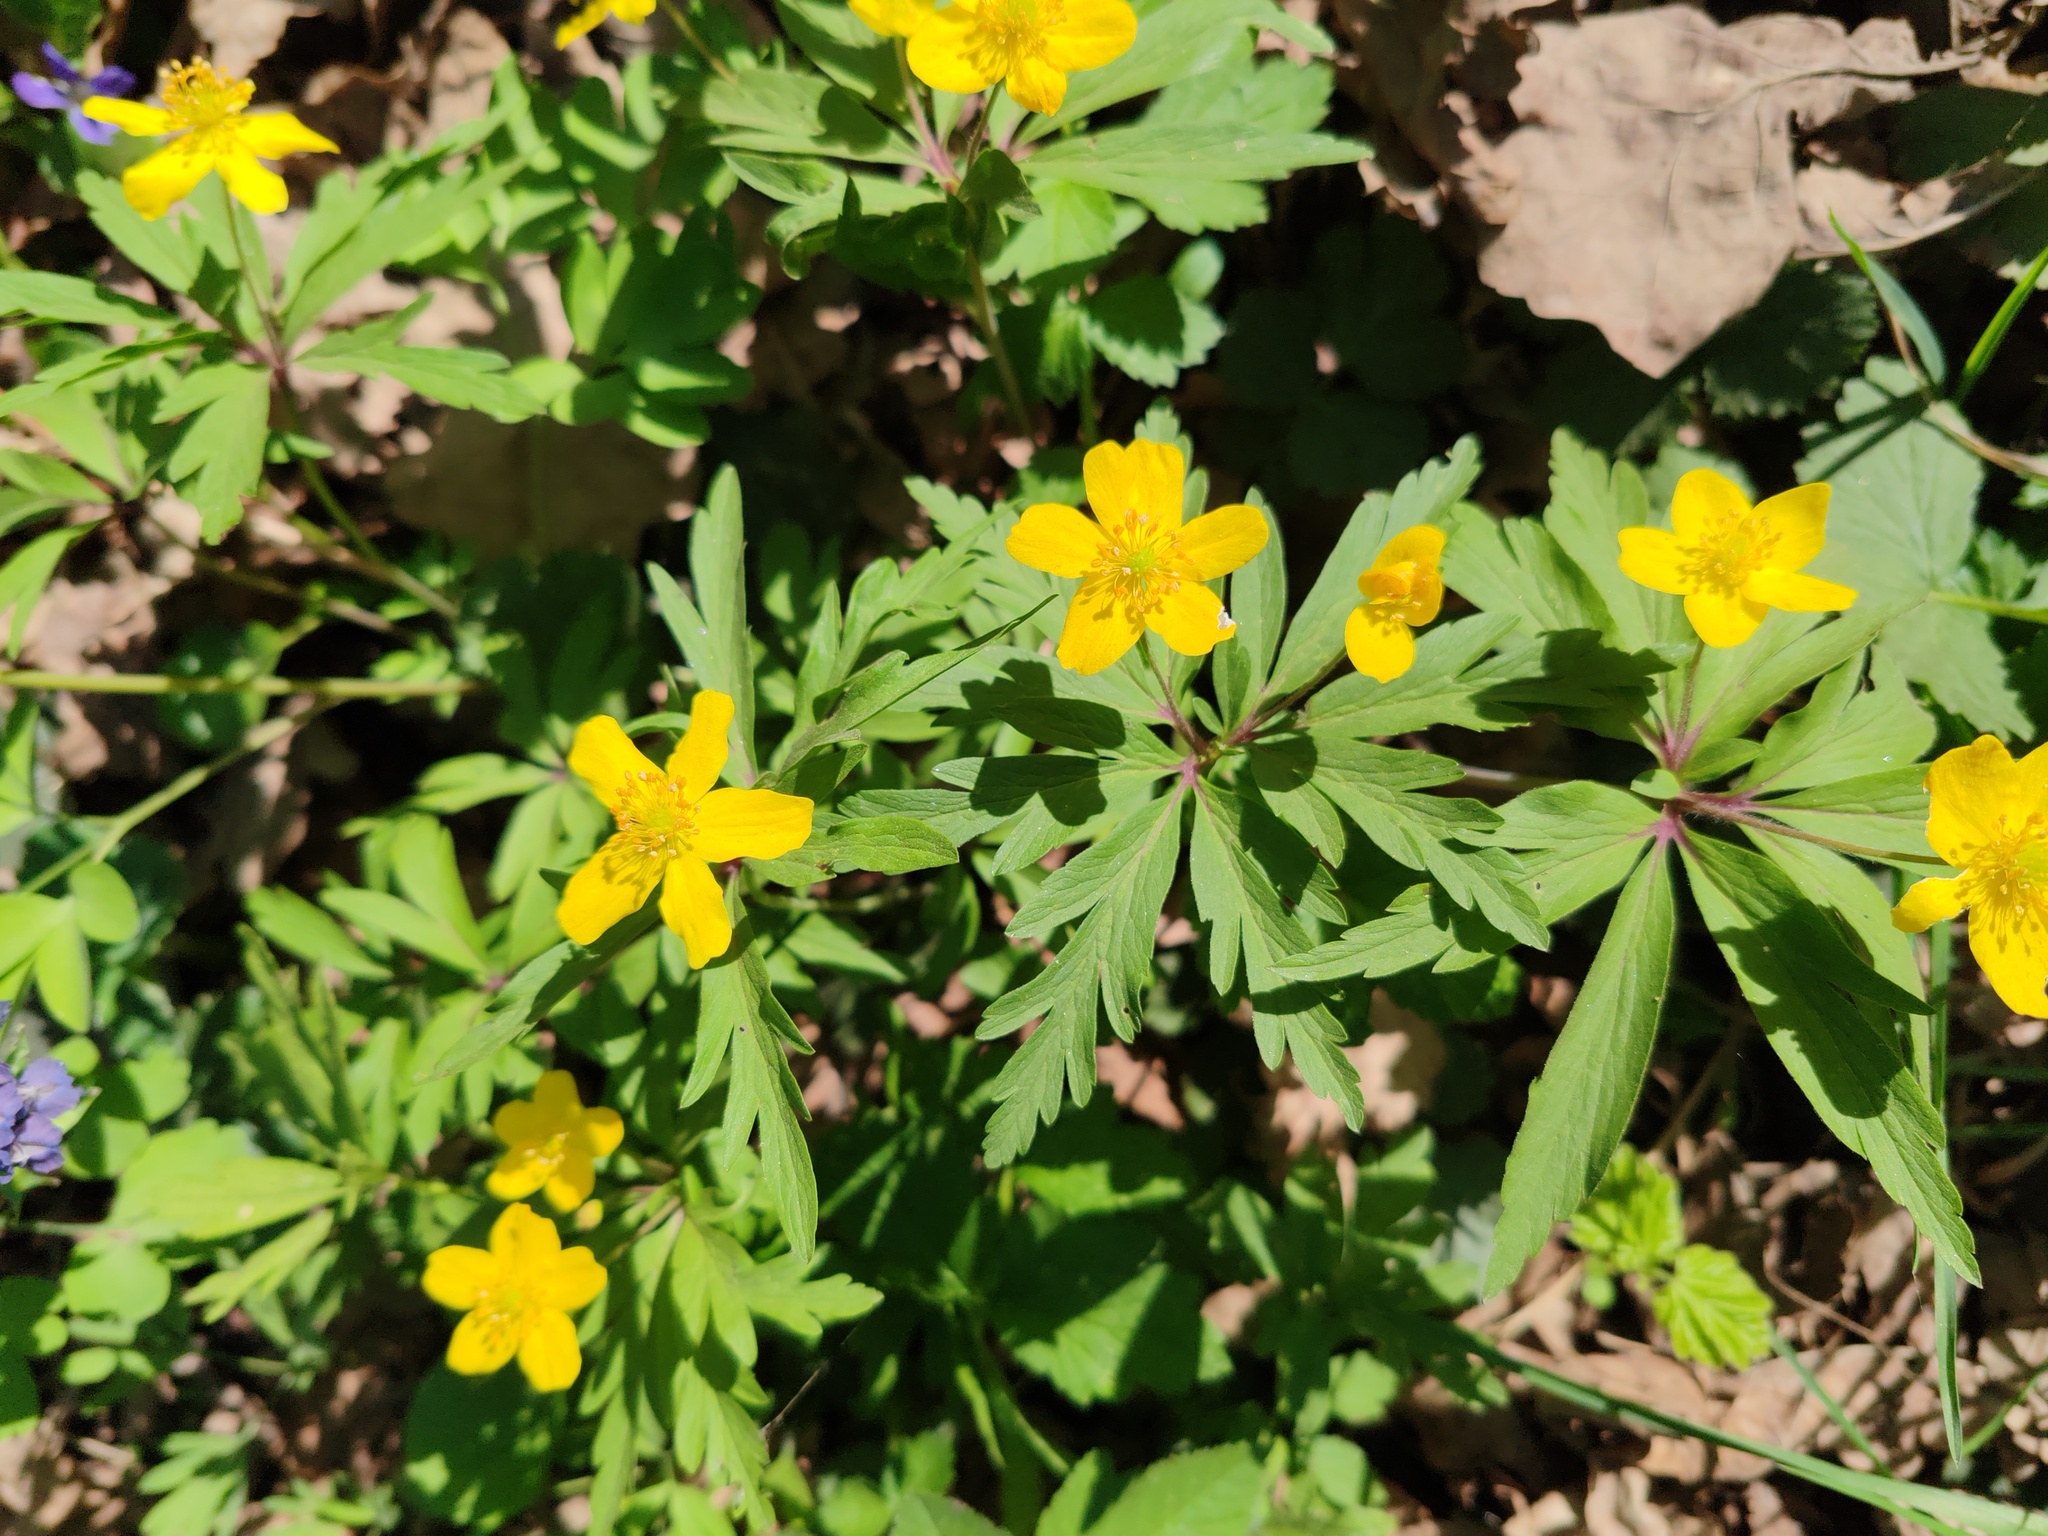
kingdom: Plantae
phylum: Tracheophyta
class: Magnoliopsida
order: Ranunculales
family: Ranunculaceae
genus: Anemone
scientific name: Anemone ranunculoides
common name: Yellow anemone
